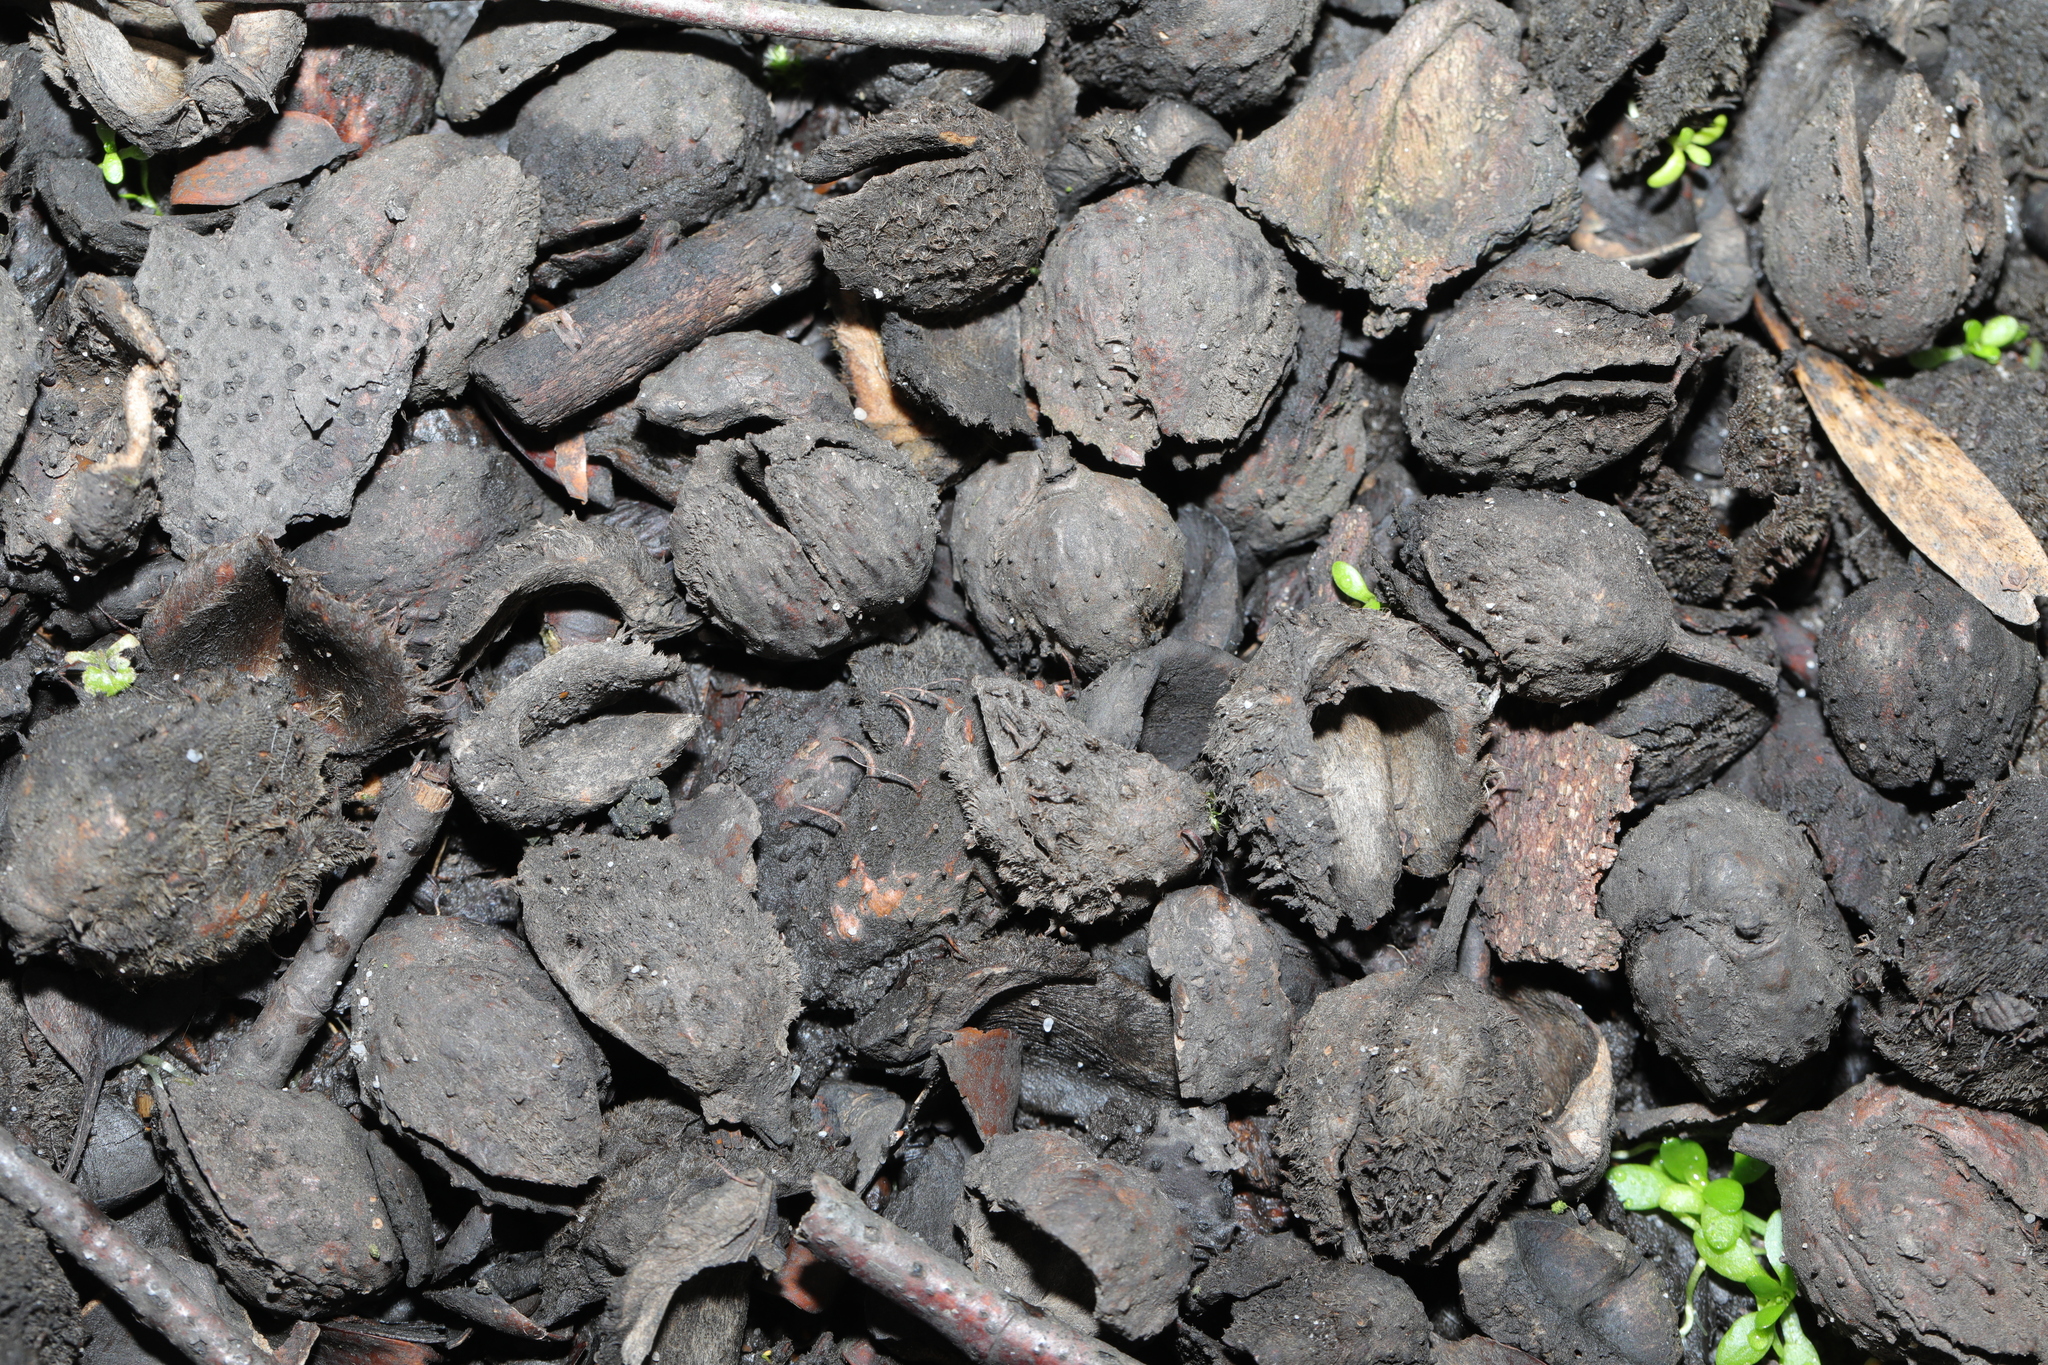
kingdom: Plantae
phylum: Tracheophyta
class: Magnoliopsida
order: Fagales
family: Fagaceae
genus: Fagus
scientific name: Fagus sylvatica
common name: Beech
